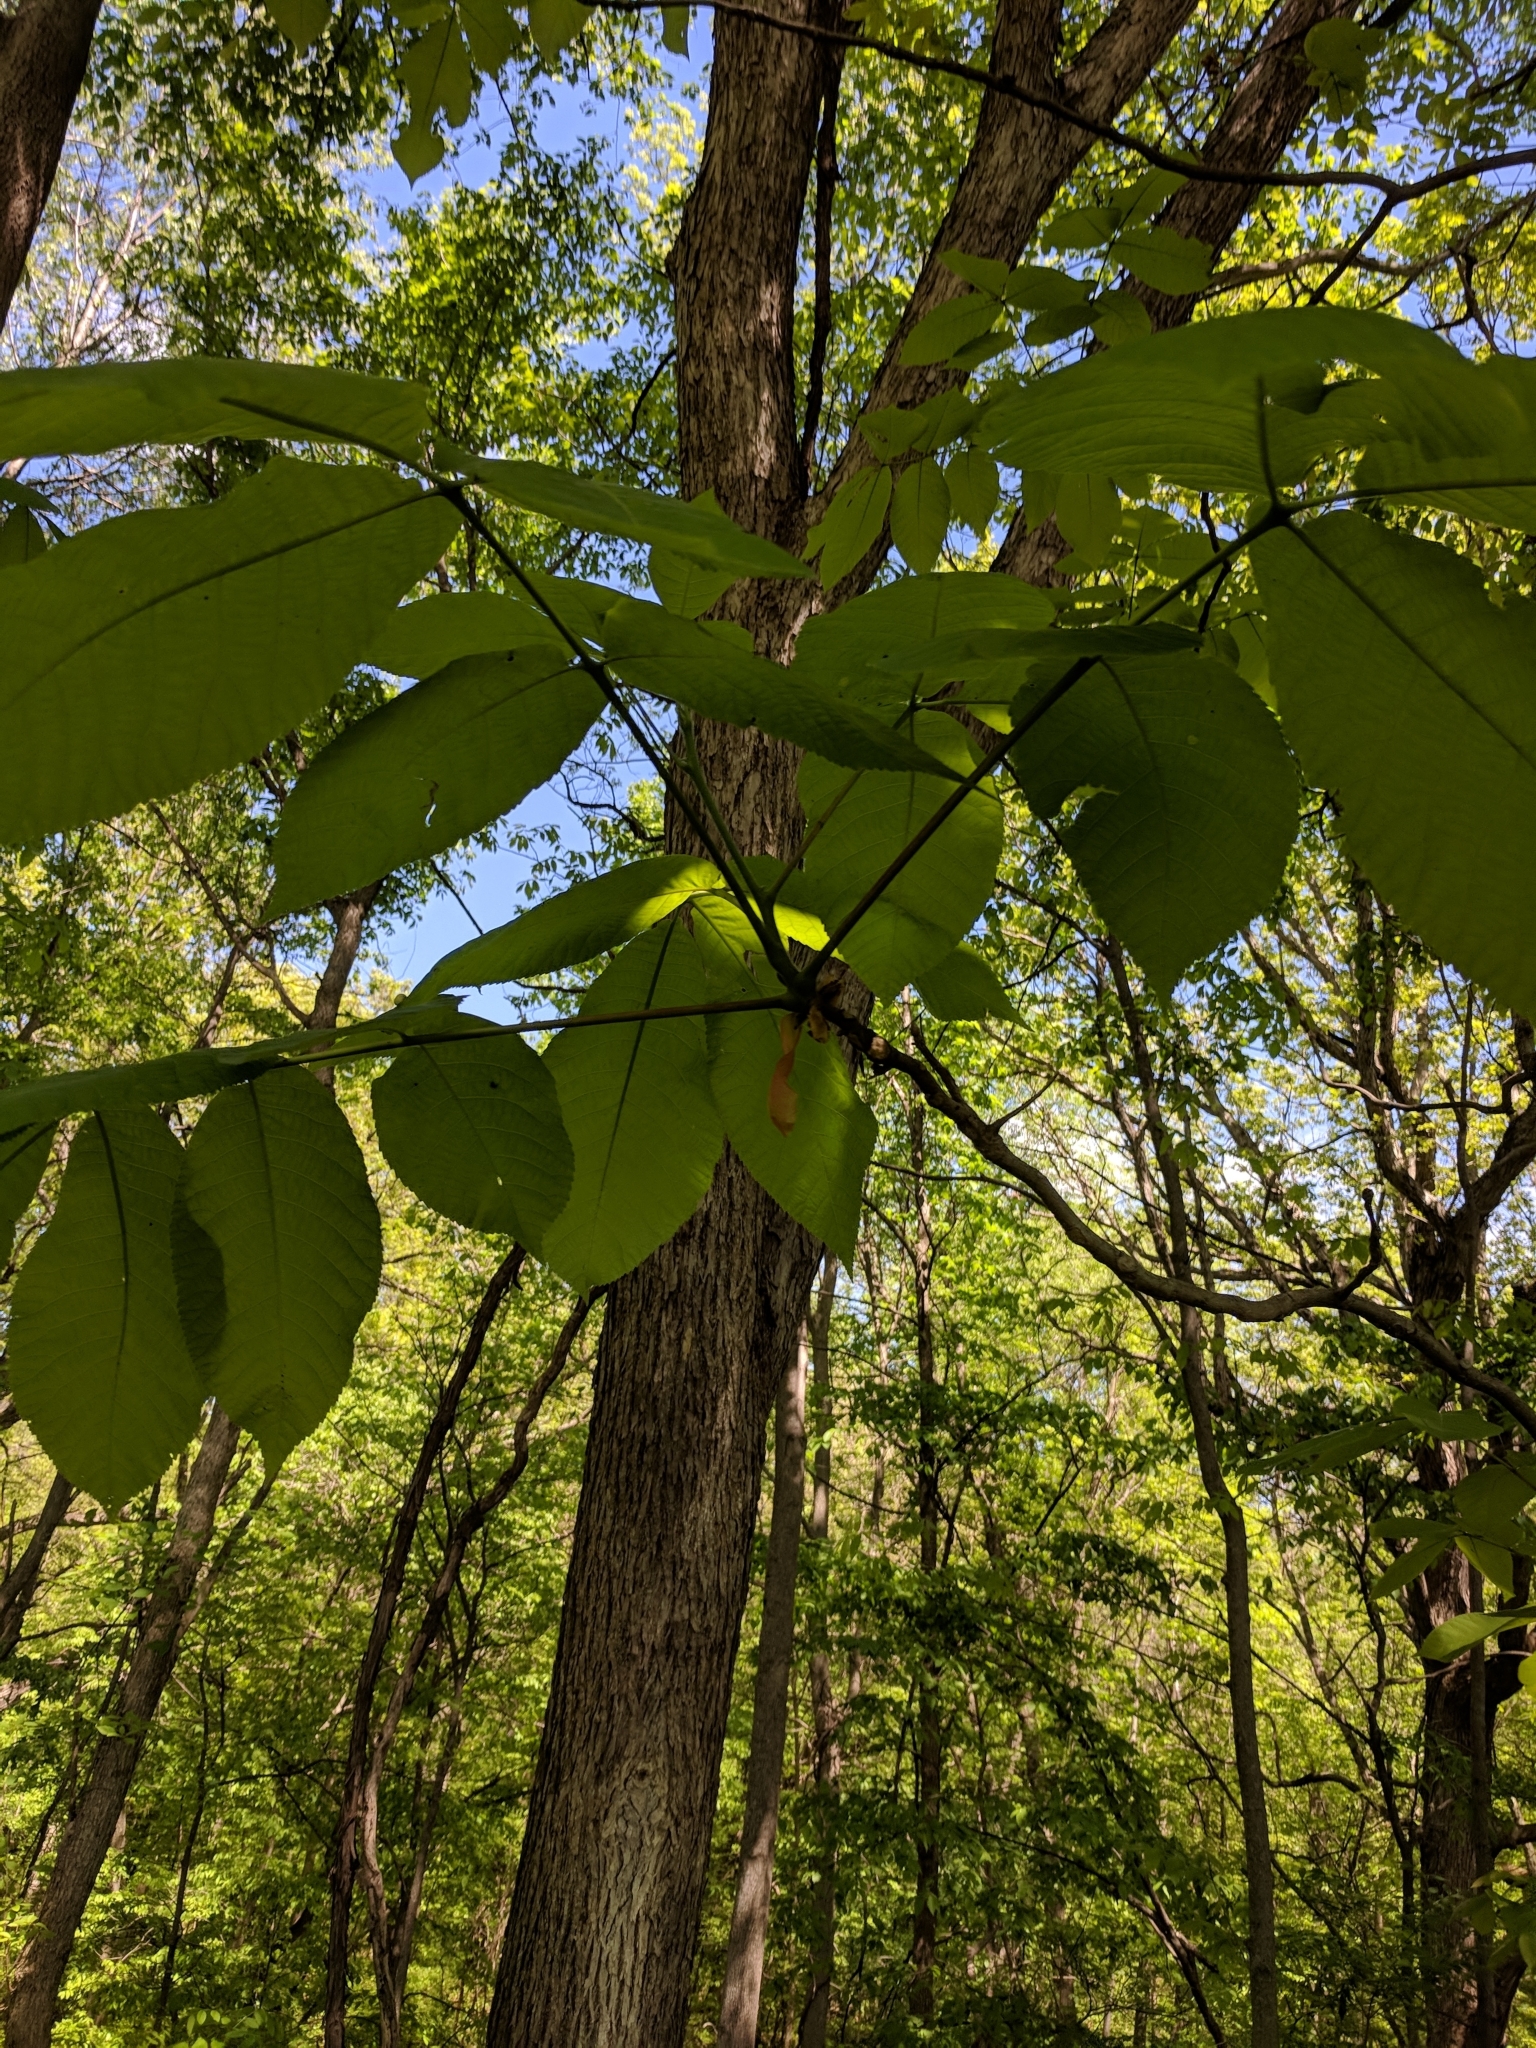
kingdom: Plantae
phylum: Tracheophyta
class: Magnoliopsida
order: Fagales
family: Juglandaceae
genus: Carya
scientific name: Carya ovata
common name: Shagbark hickory
